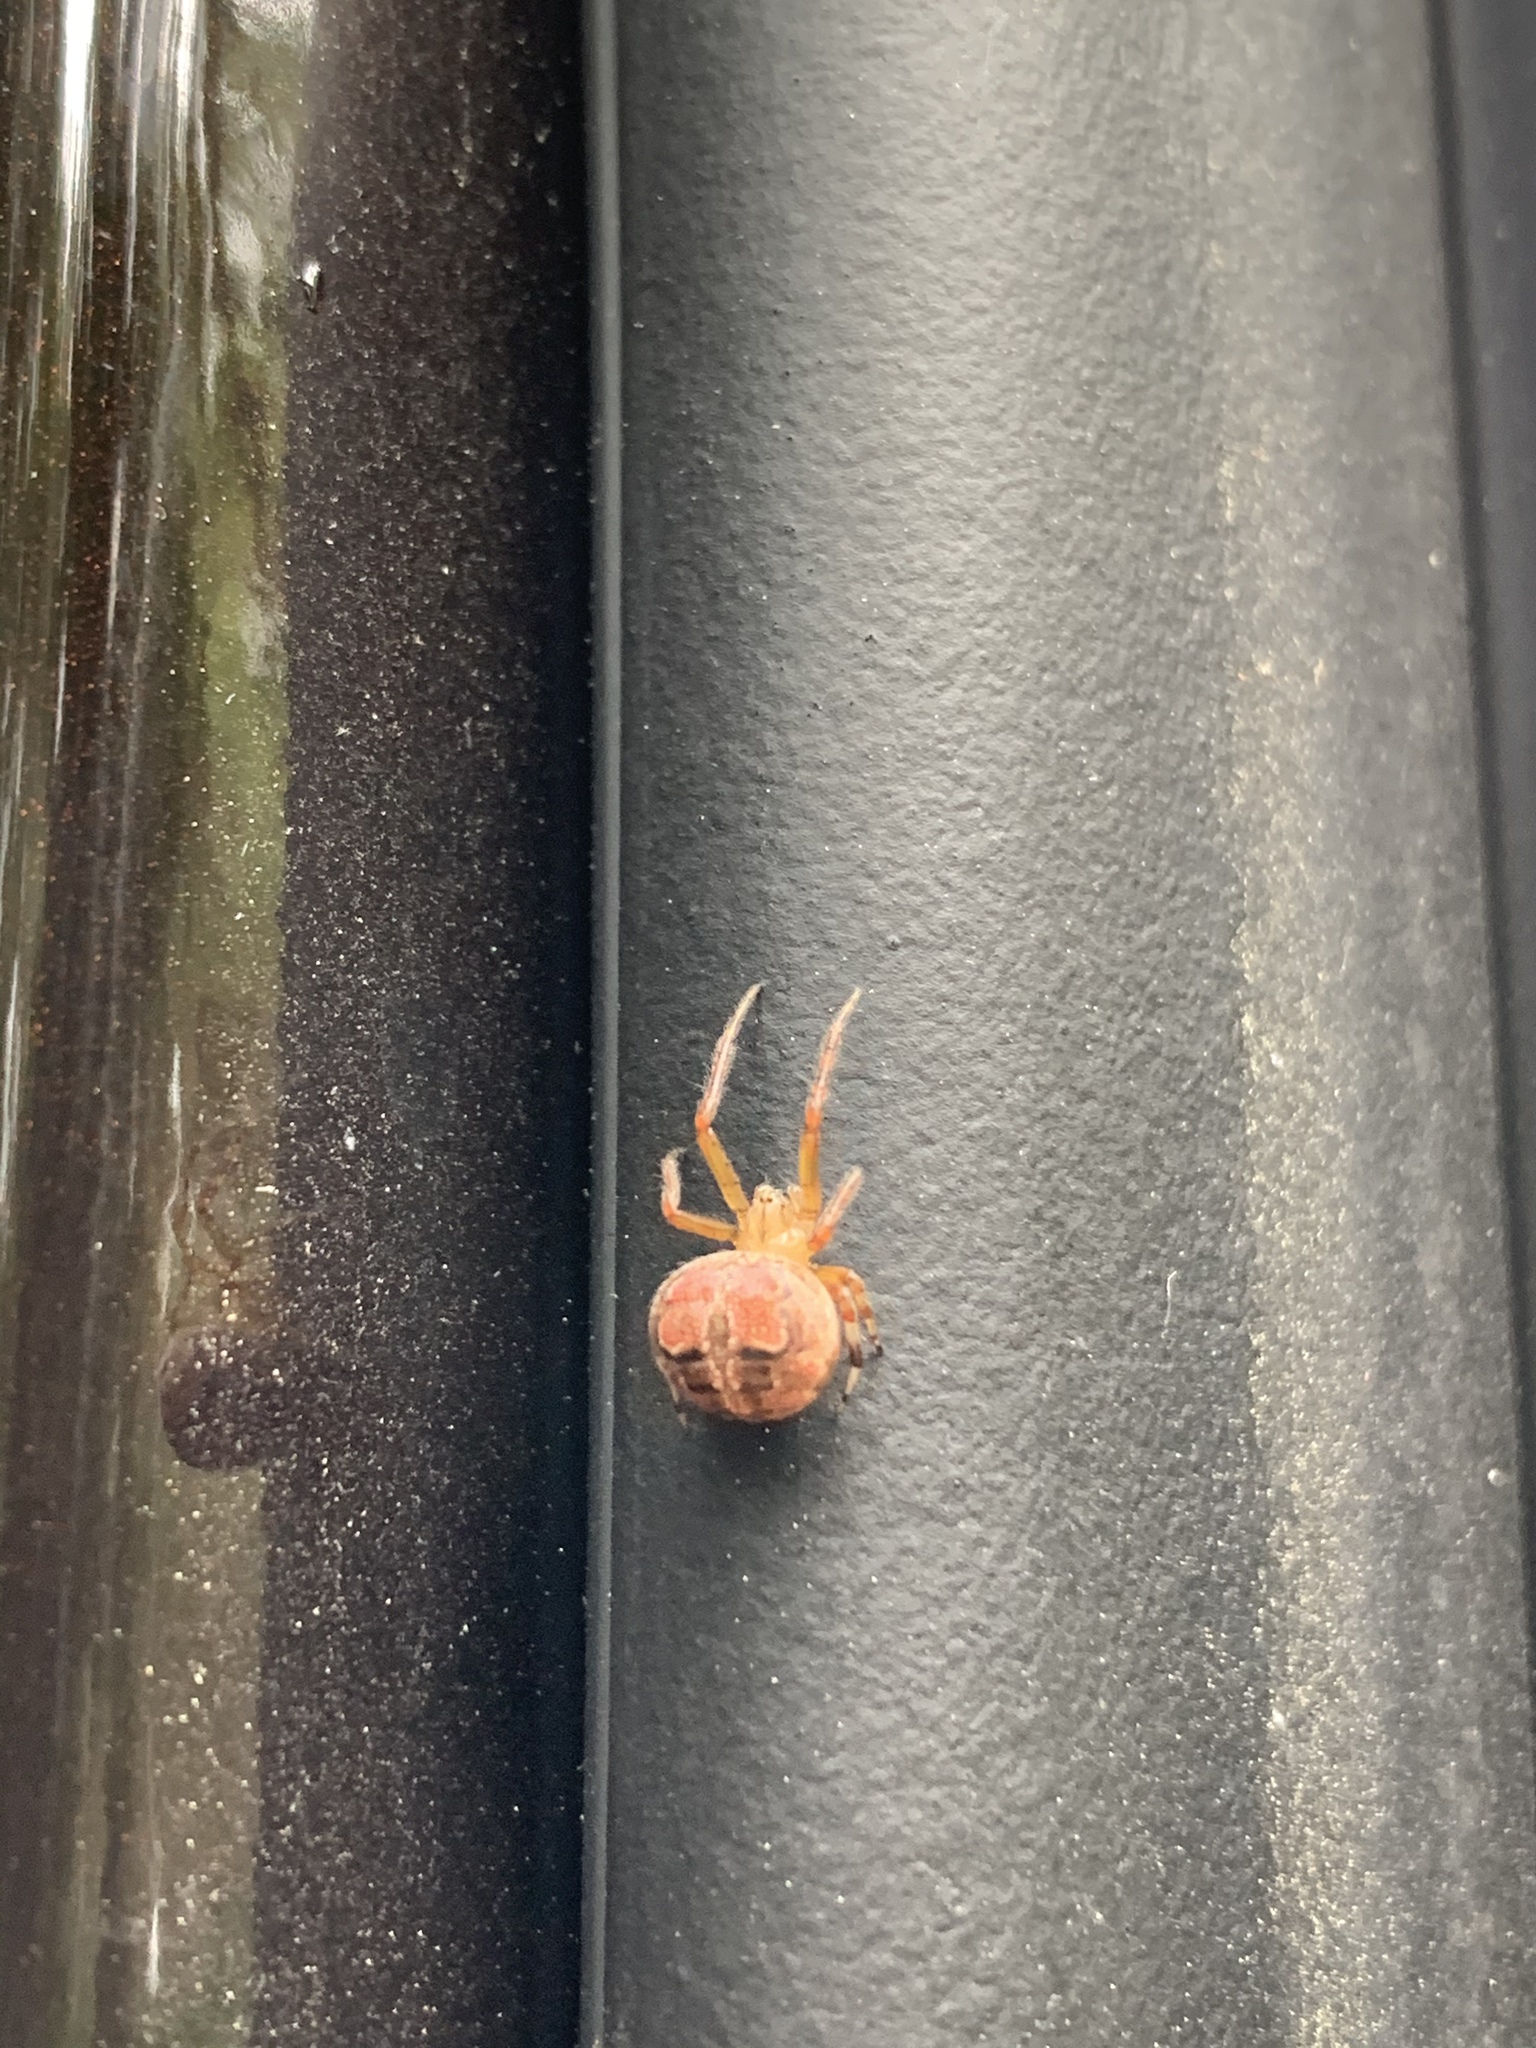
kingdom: Animalia
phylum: Arthropoda
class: Arachnida
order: Araneae
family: Araneidae
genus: Araneus
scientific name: Araneus pegnia
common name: Orb weavers
